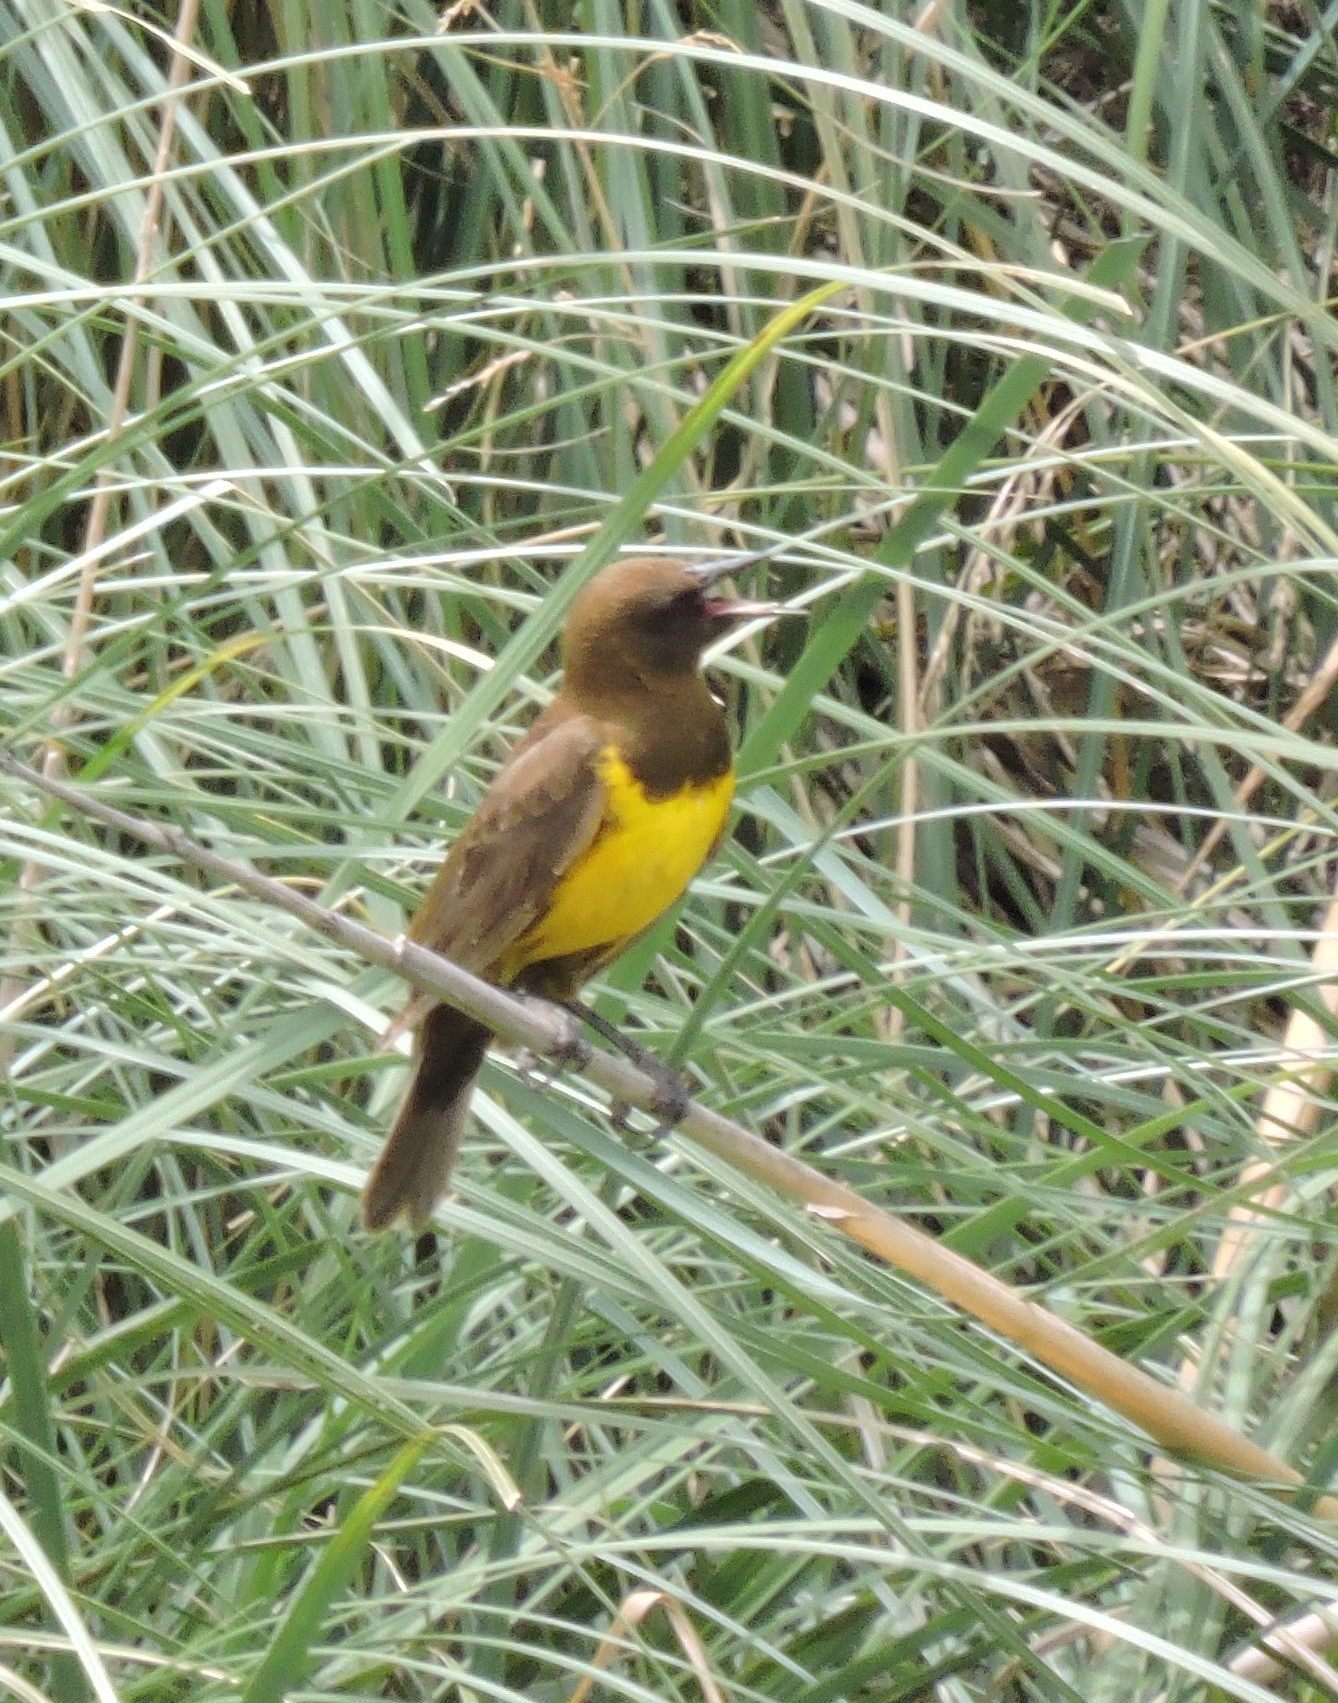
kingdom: Animalia
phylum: Chordata
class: Aves
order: Passeriformes
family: Icteridae
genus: Pseudoleistes
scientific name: Pseudoleistes virescens
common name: Brown-and-yellow marshbird
